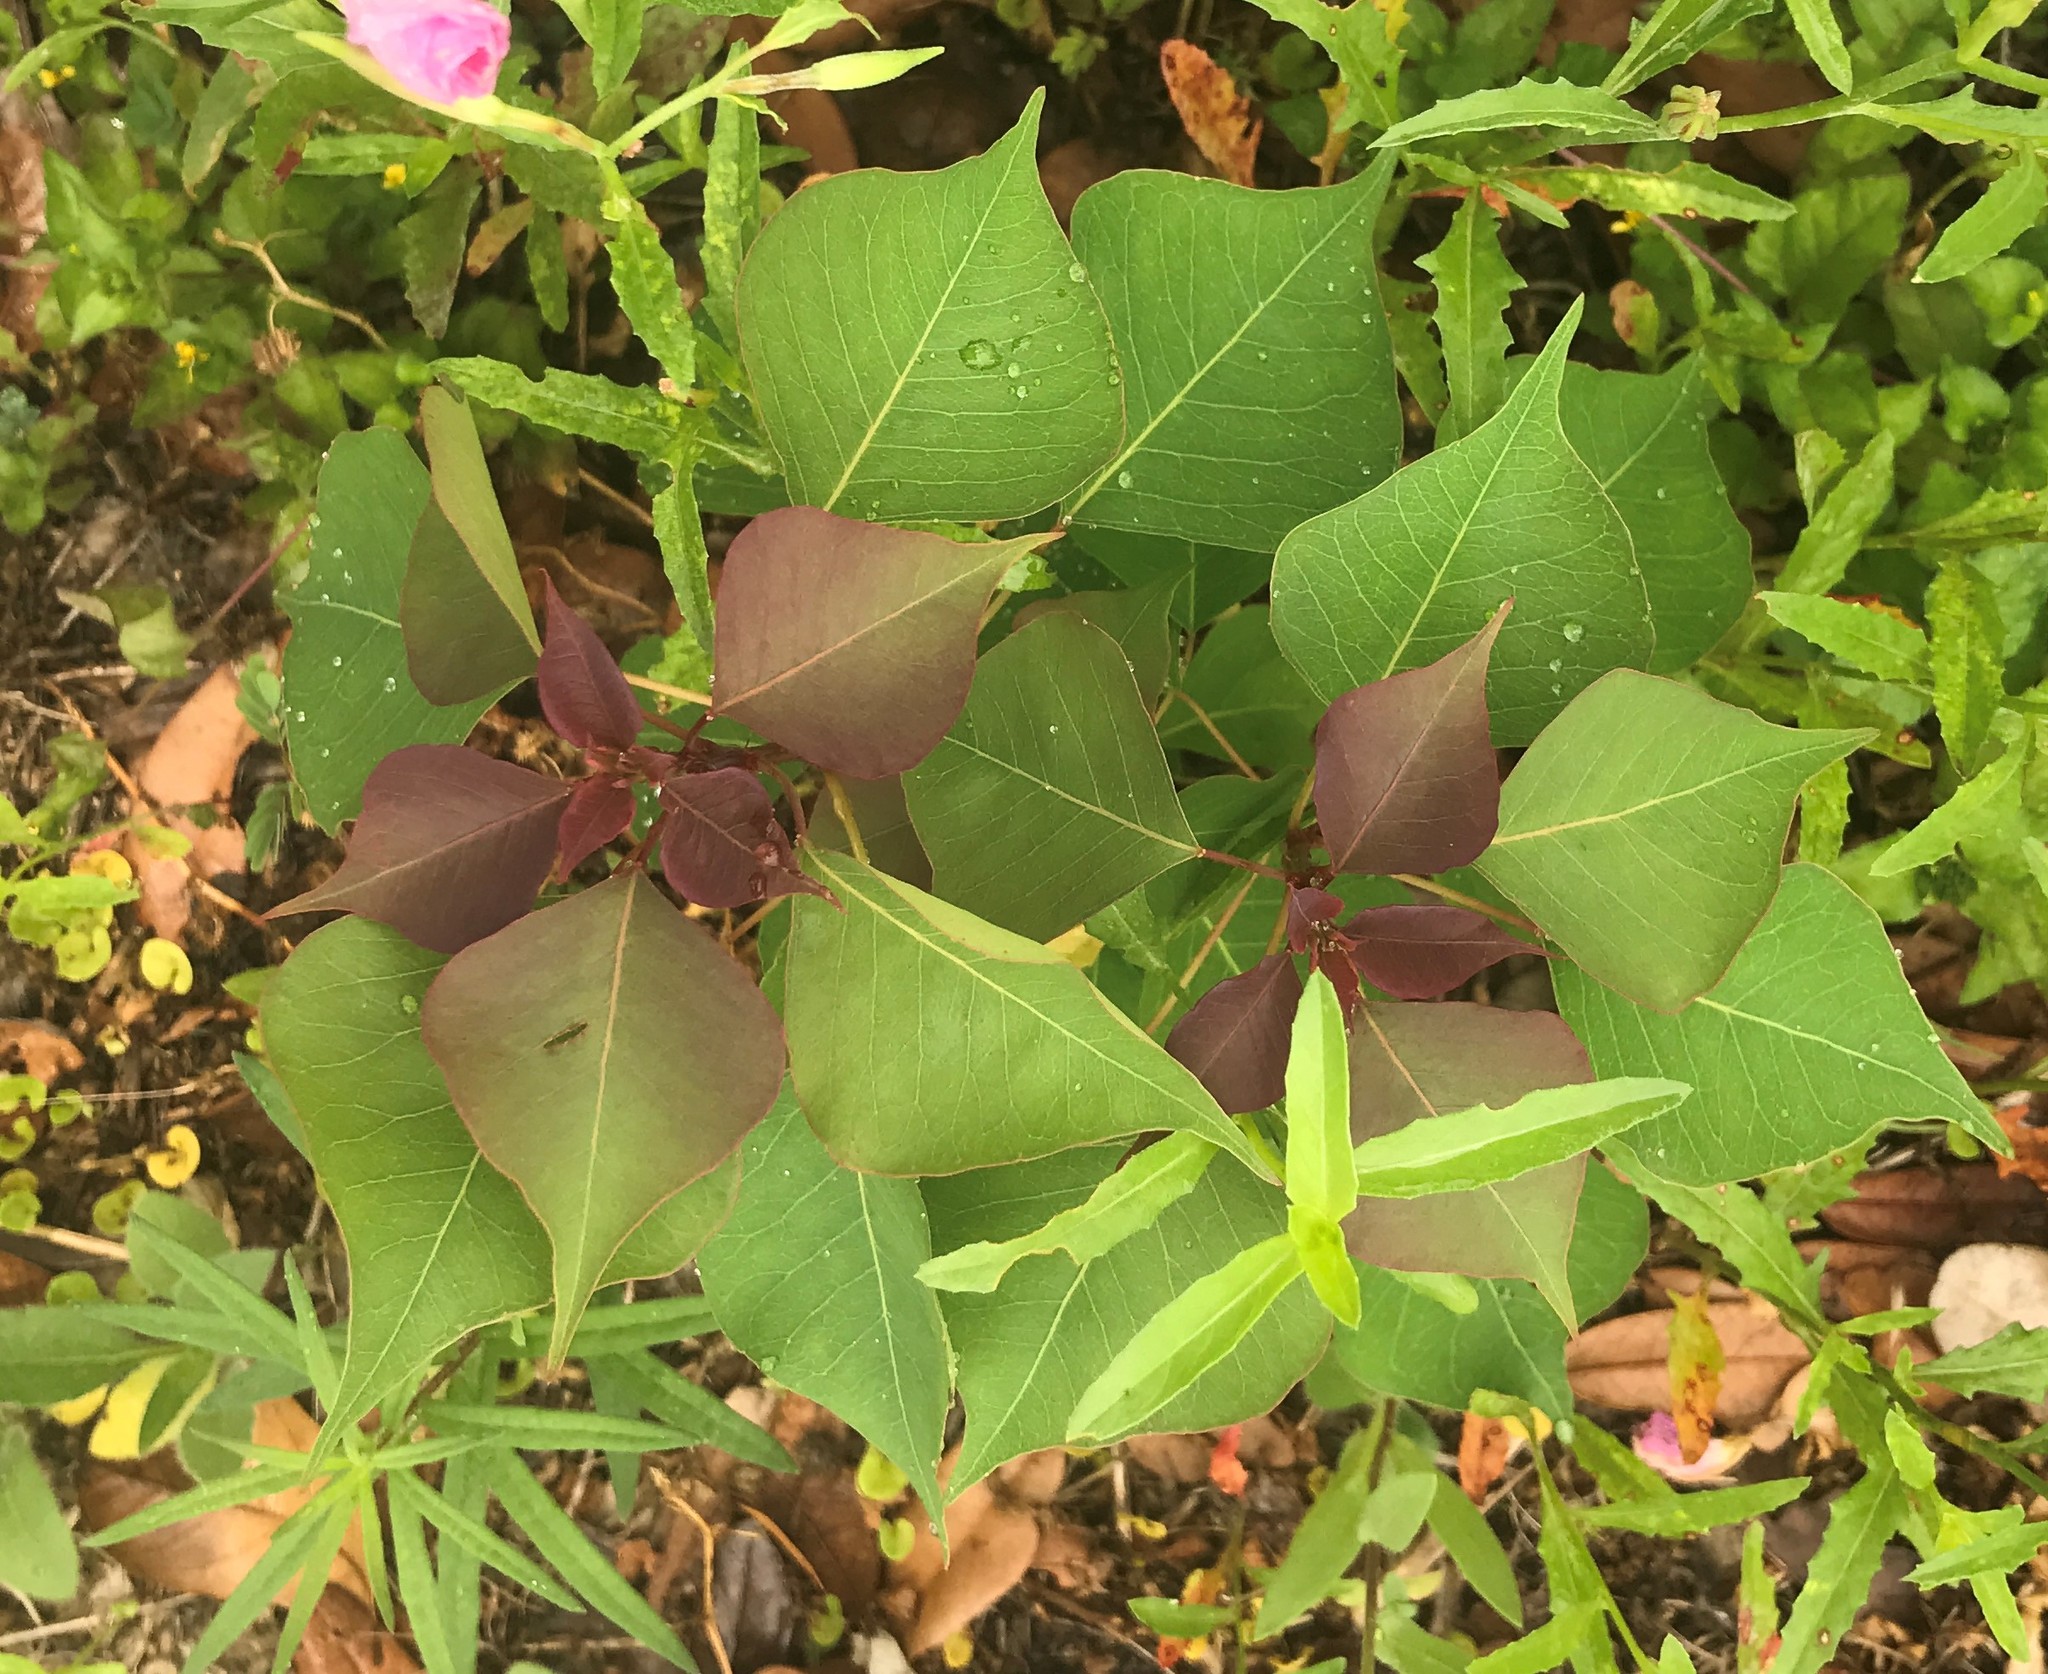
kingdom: Plantae
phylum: Tracheophyta
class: Magnoliopsida
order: Malpighiales
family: Euphorbiaceae
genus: Triadica
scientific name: Triadica sebifera
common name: Chinese tallow
